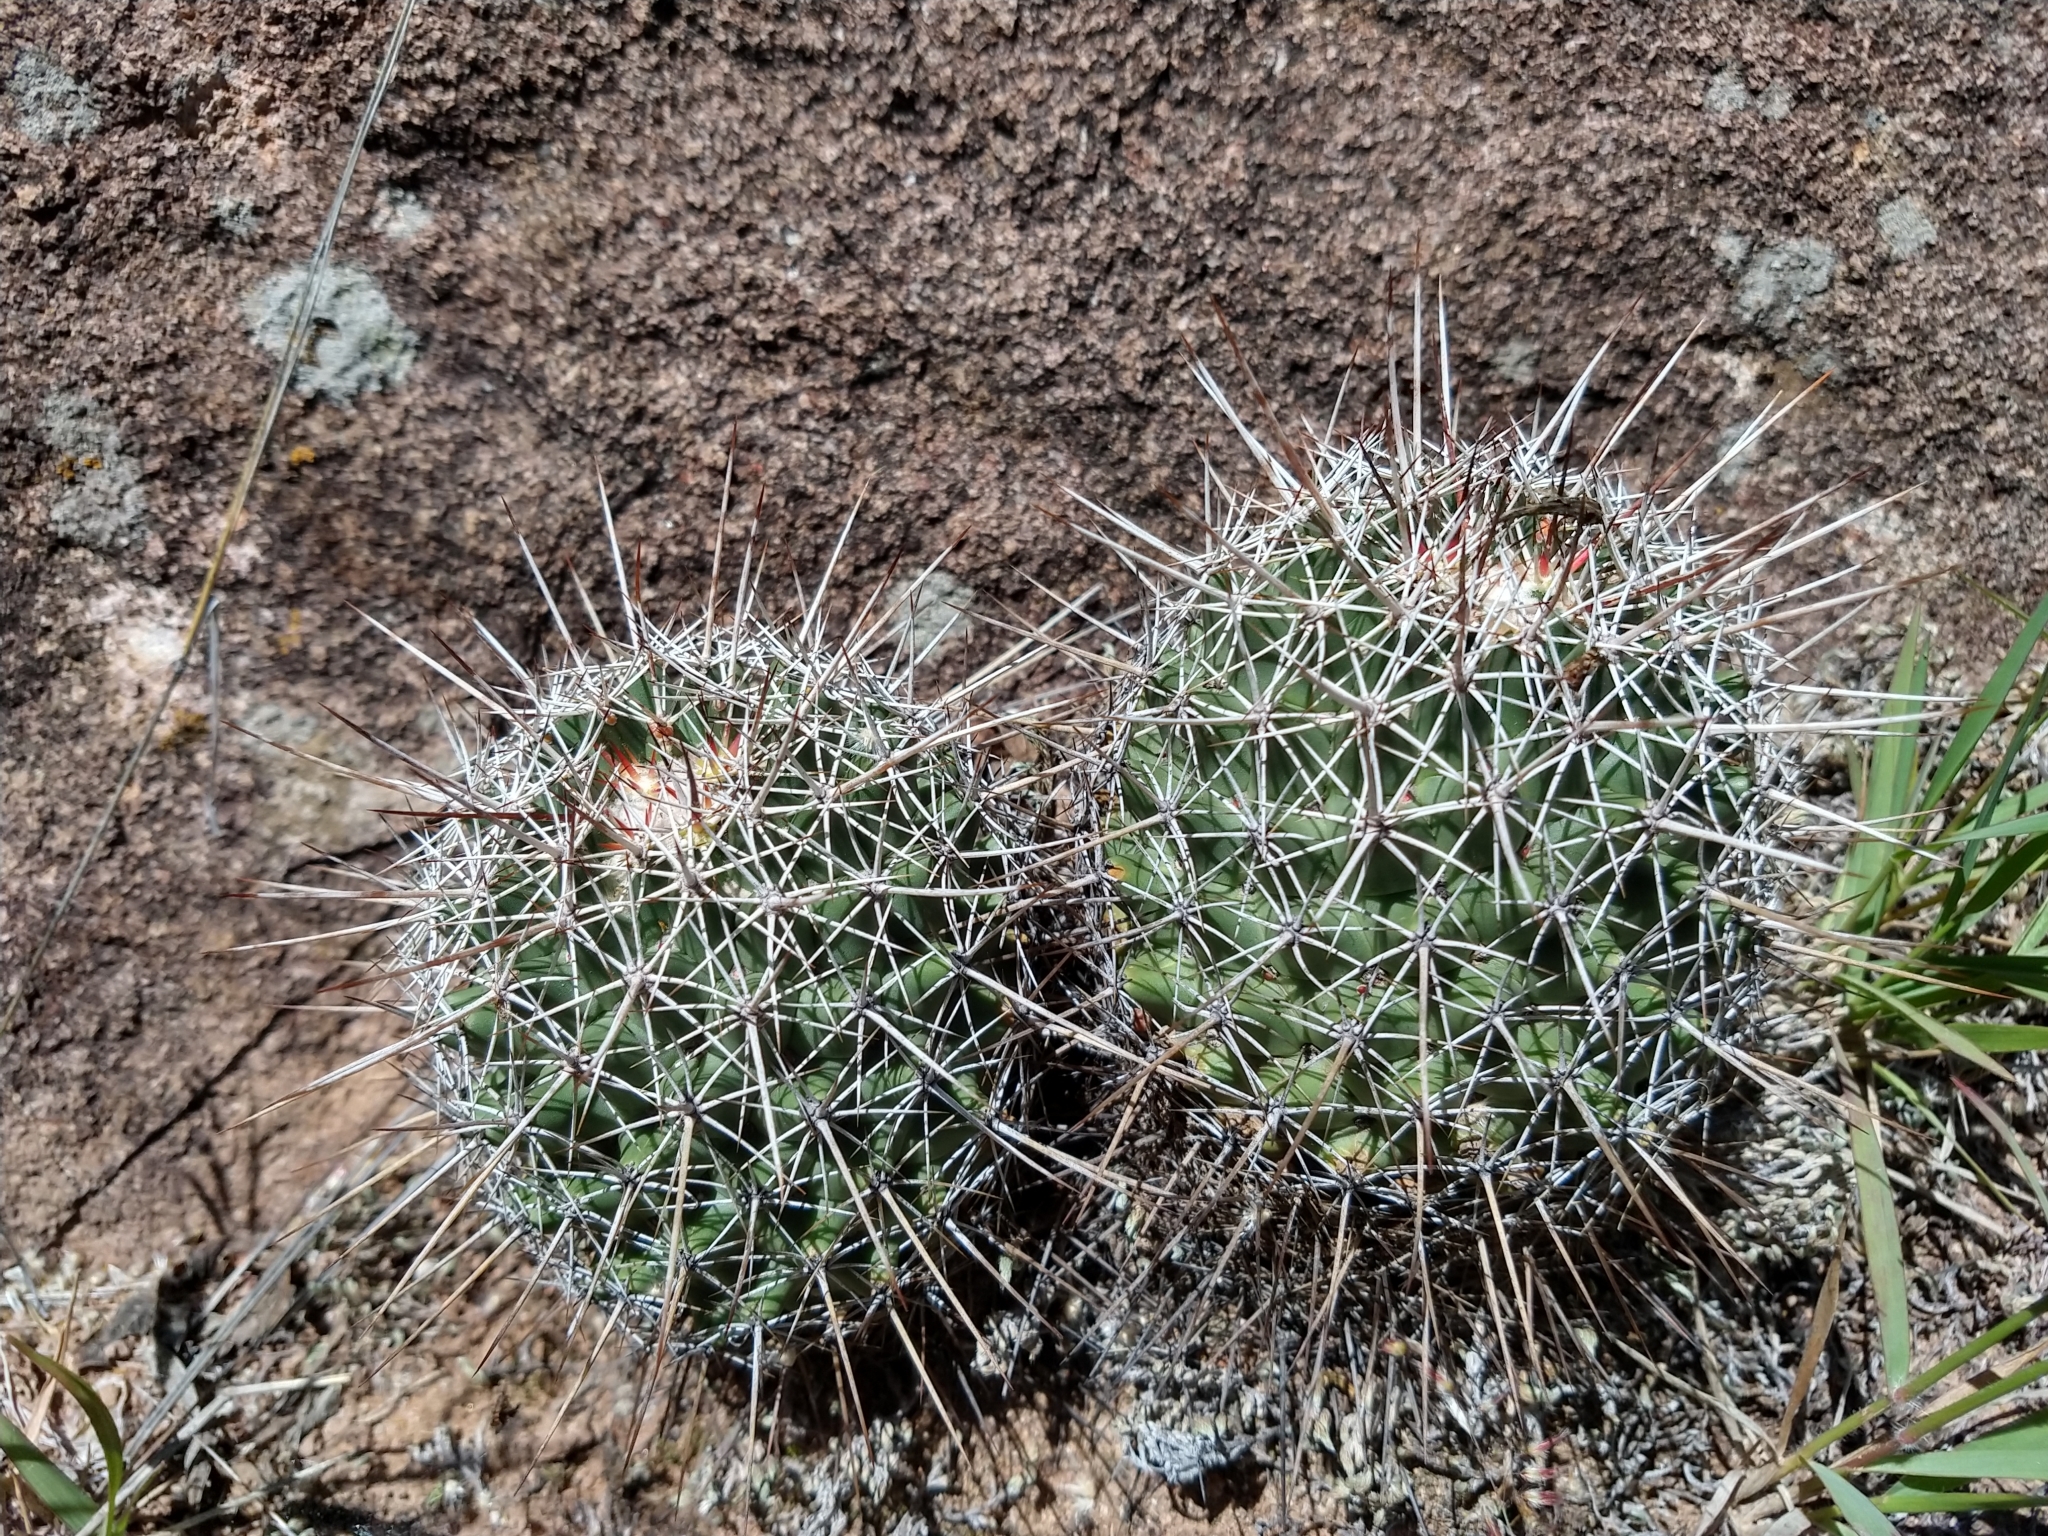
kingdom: Plantae
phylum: Tracheophyta
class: Magnoliopsida
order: Caryophyllales
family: Cactaceae
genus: Coryphantha
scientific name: Coryphantha clavata
